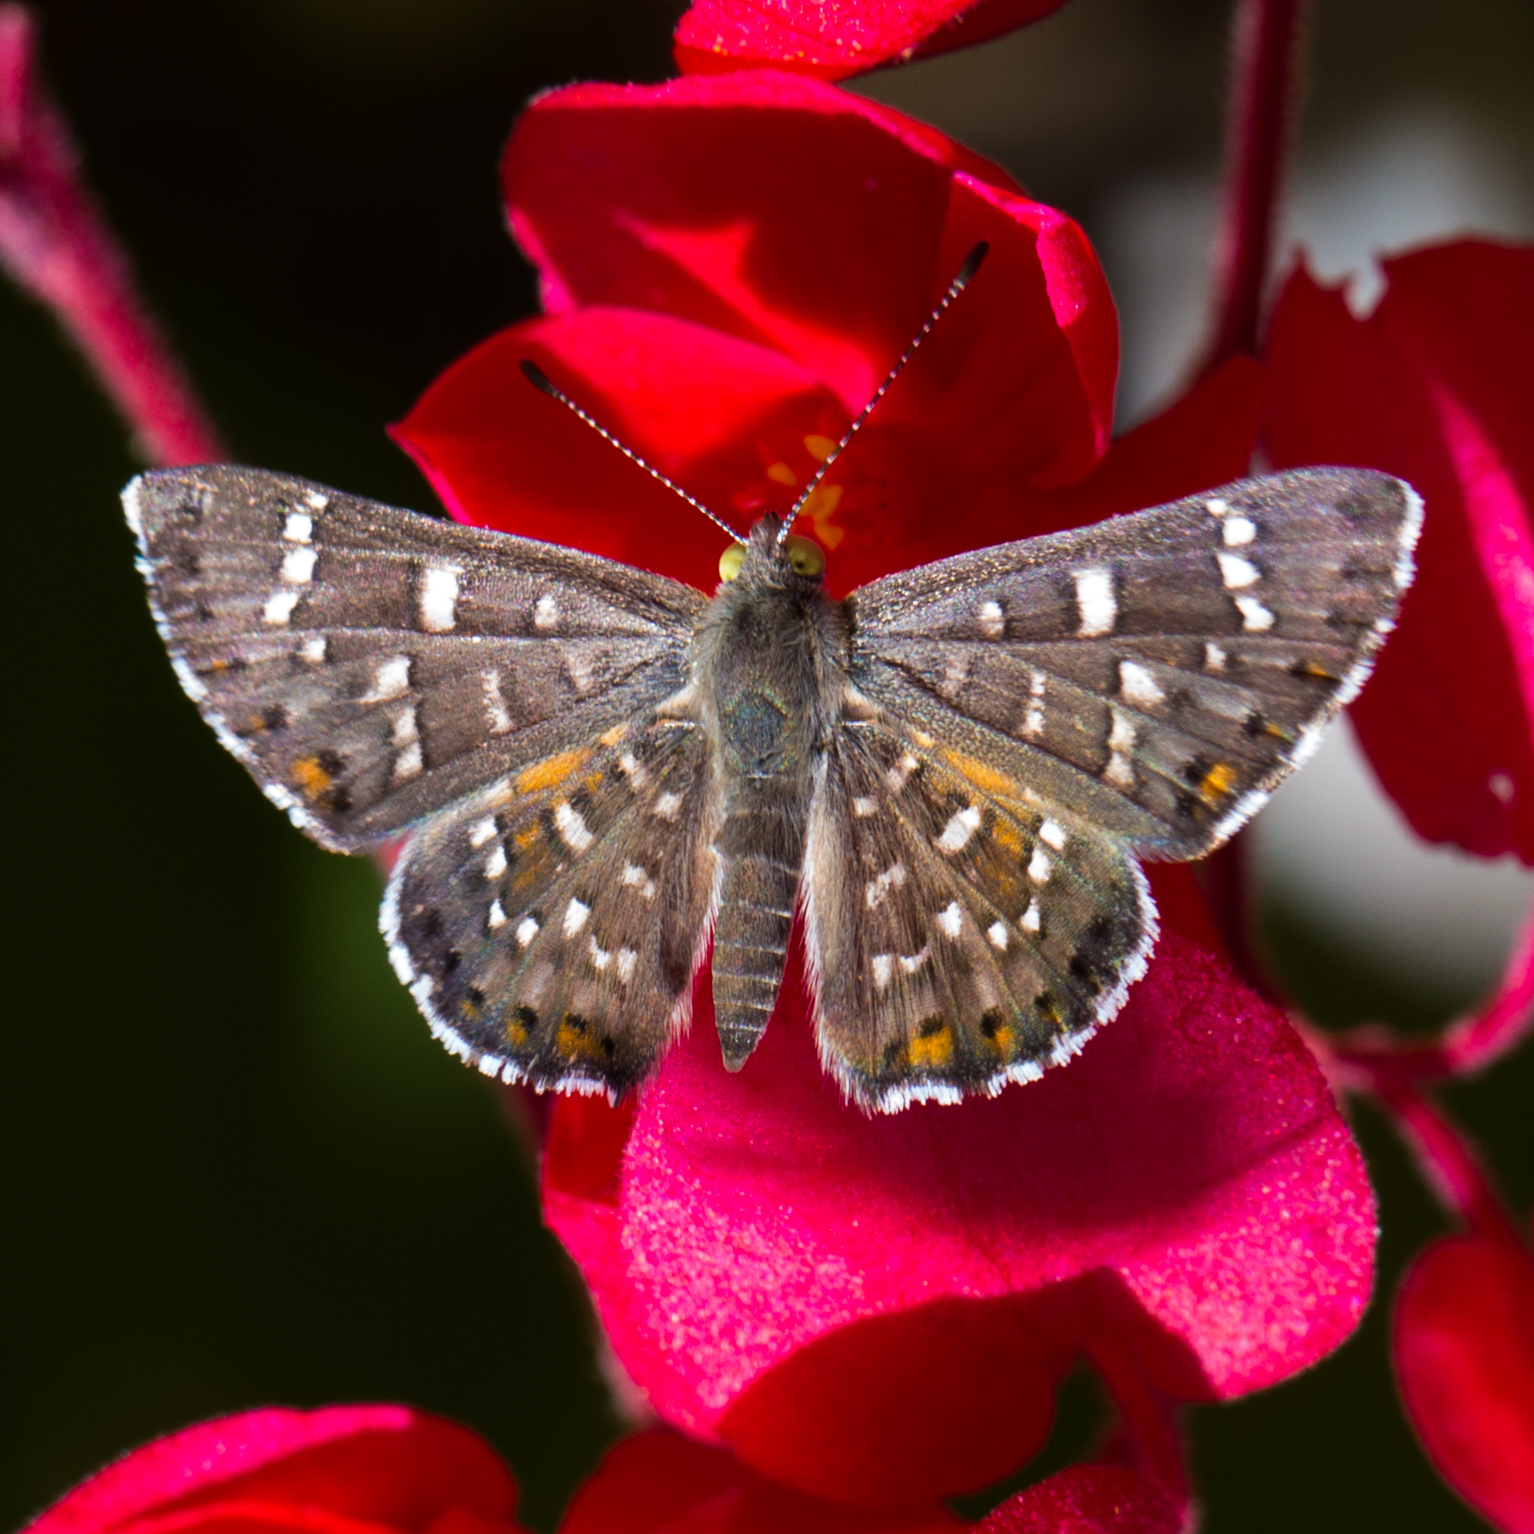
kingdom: Animalia
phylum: Arthropoda
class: Insecta
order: Lepidoptera
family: Riodinidae
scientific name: Riodinidae
